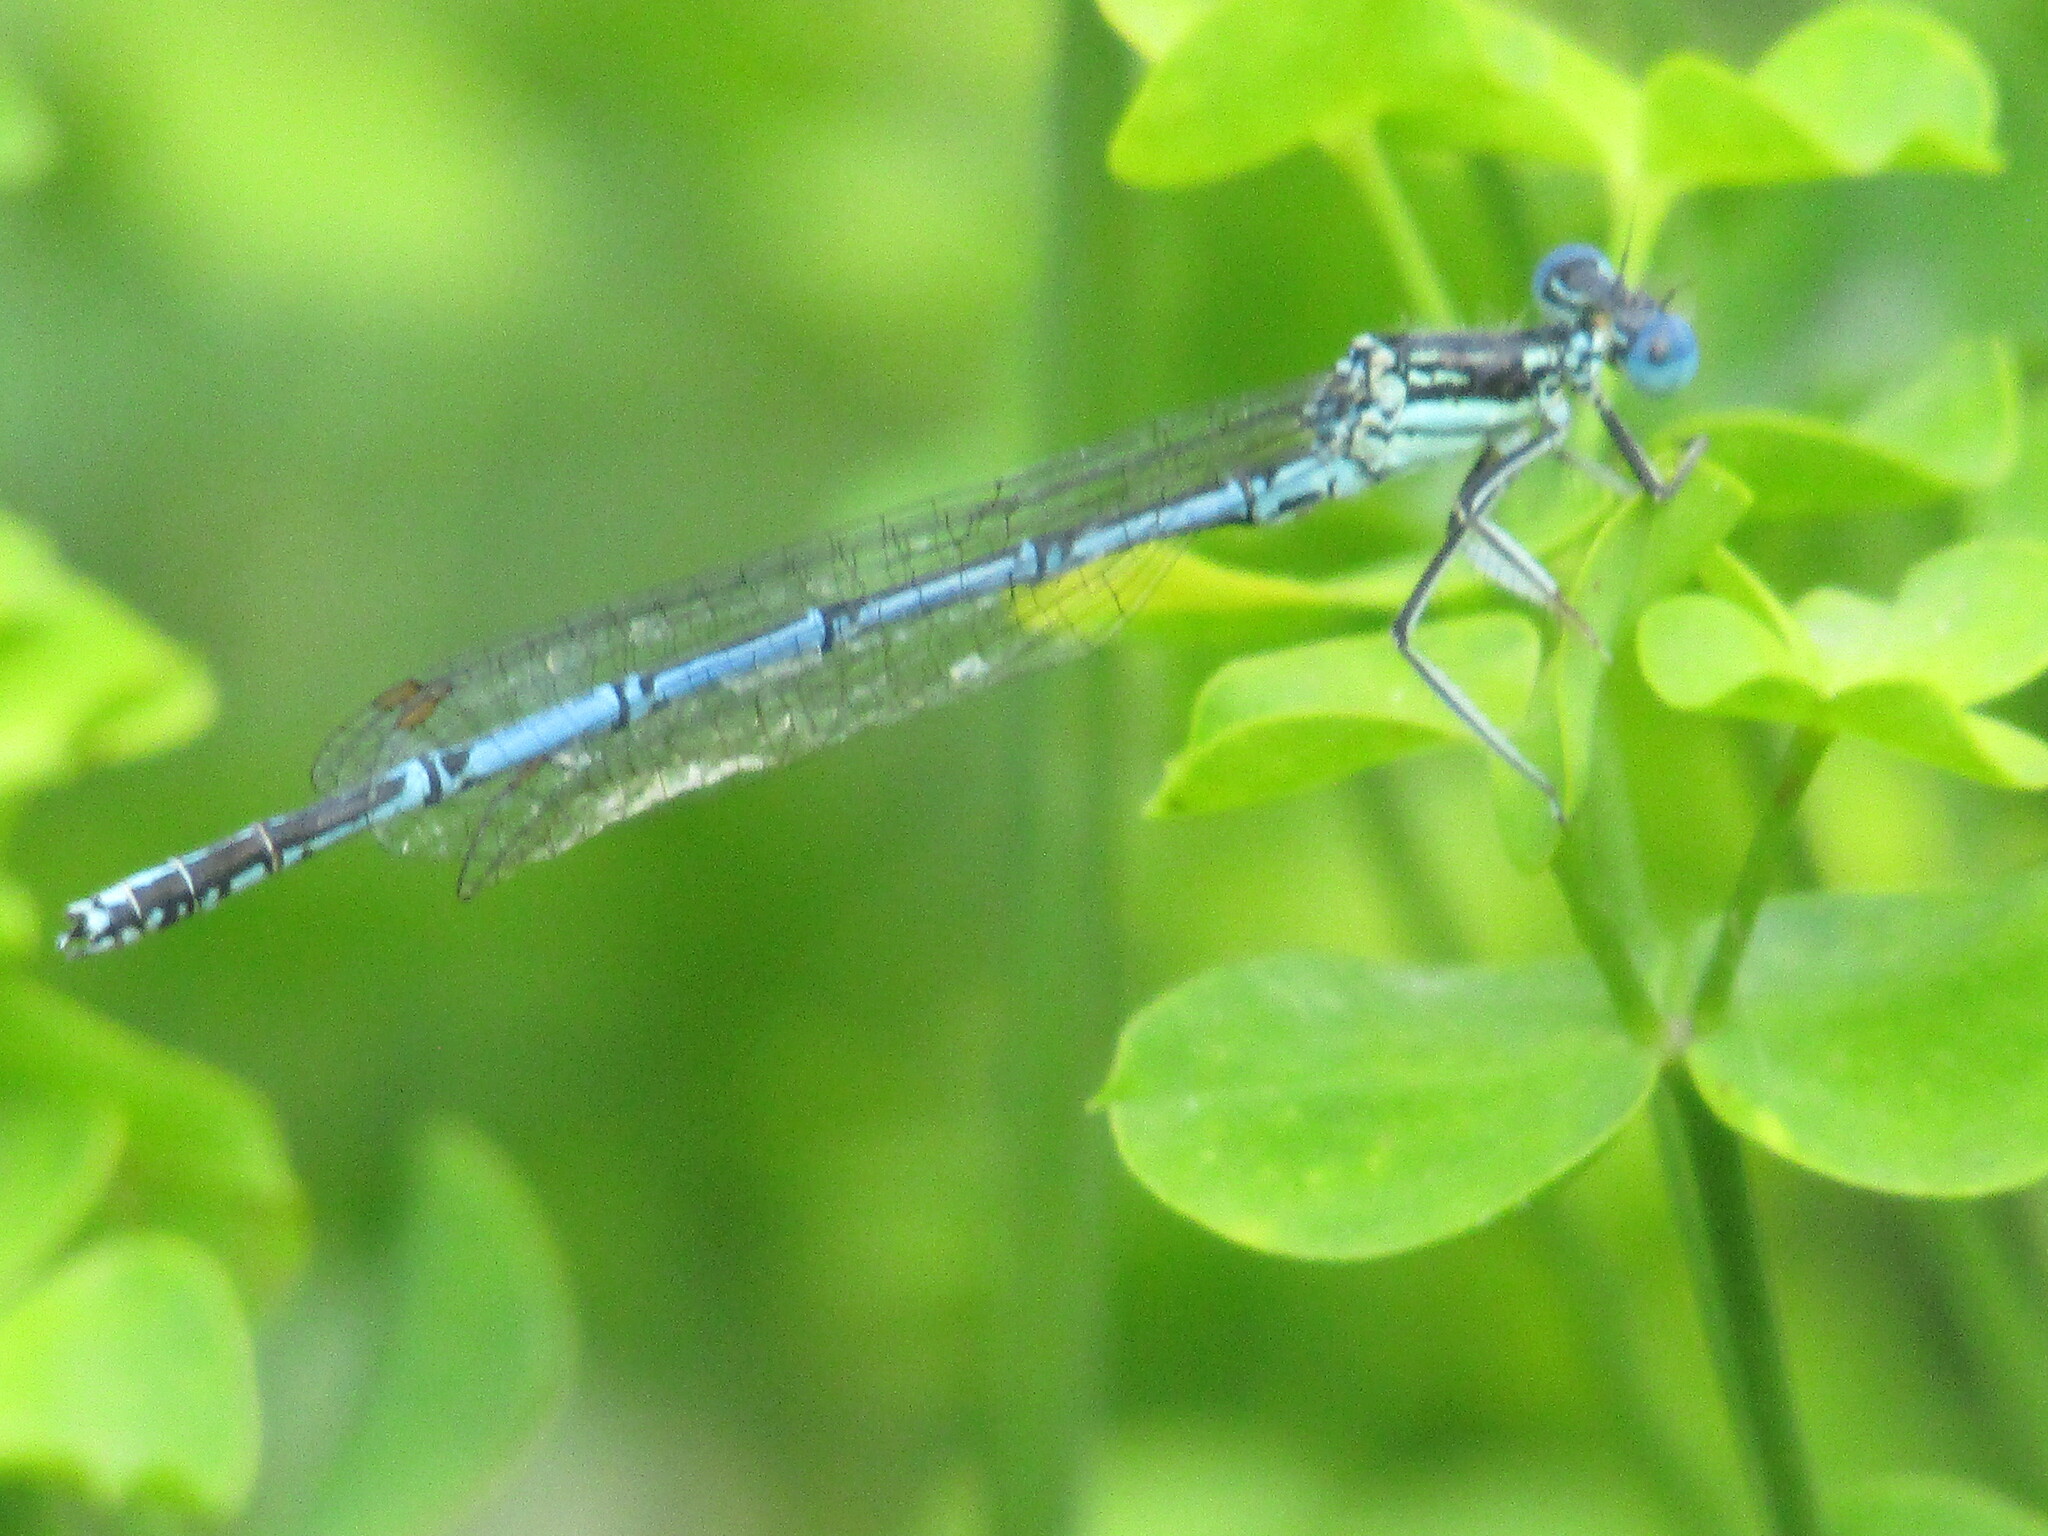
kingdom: Animalia
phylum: Arthropoda
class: Insecta
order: Odonata
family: Platycnemididae
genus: Platycnemis
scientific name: Platycnemis pennipes
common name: White-legged damselfly
